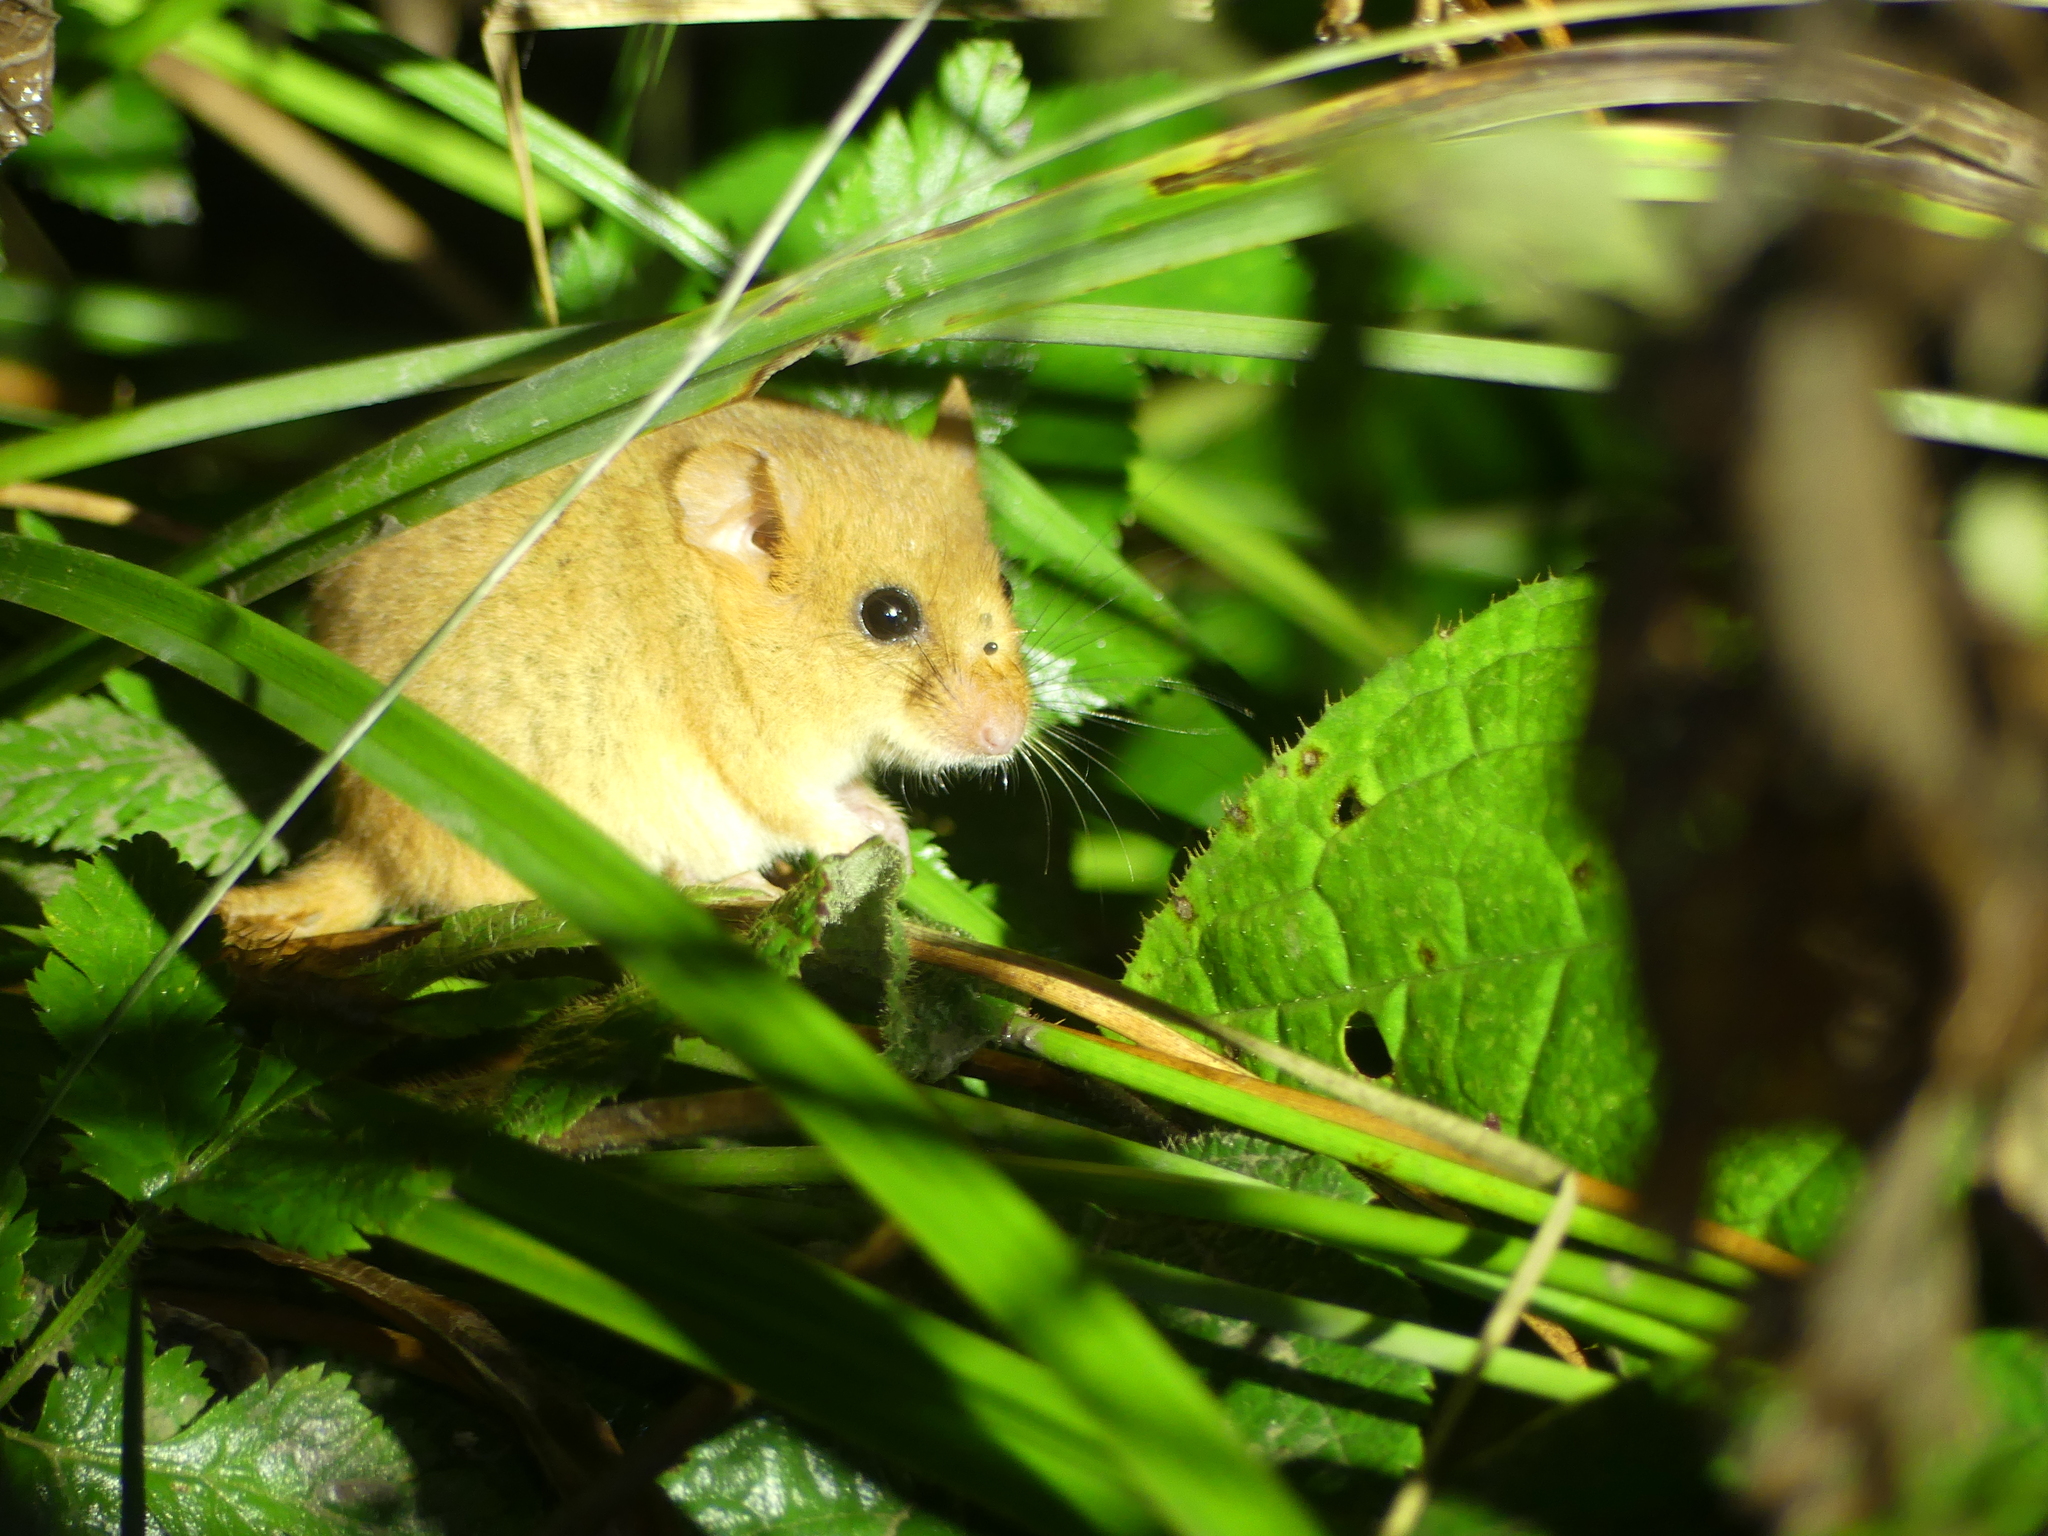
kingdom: Animalia
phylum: Chordata
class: Mammalia
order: Rodentia
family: Gliridae
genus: Muscardinus
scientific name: Muscardinus avellanarius
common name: Hazel dormouse
